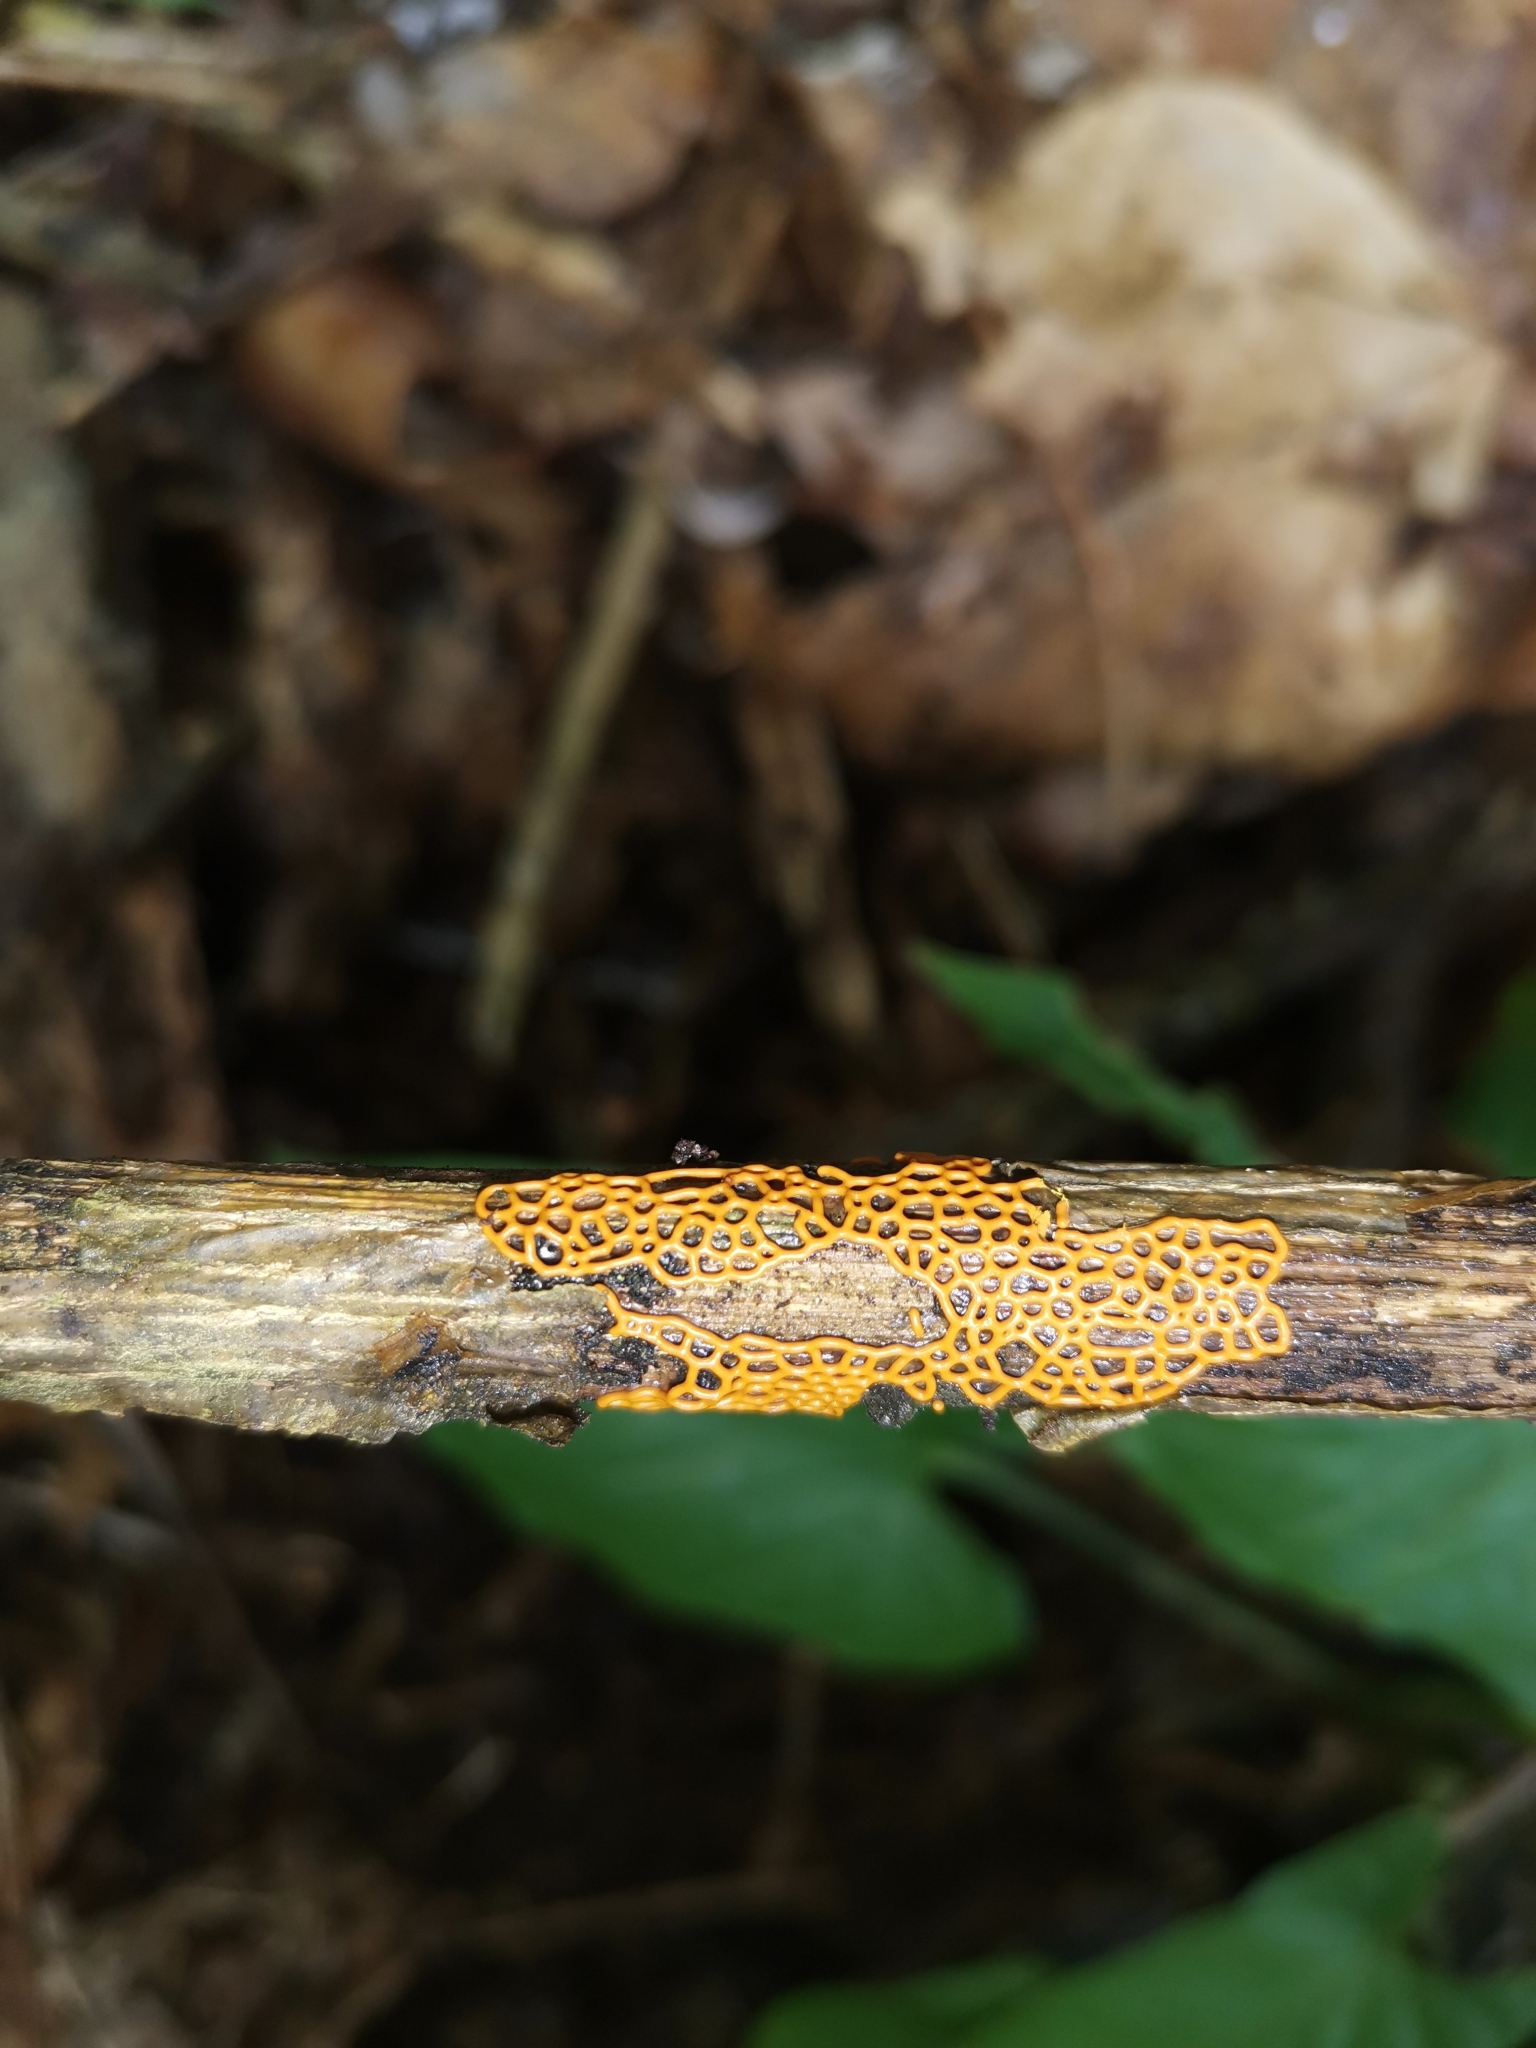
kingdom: Protozoa
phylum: Mycetozoa
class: Myxomycetes
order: Trichiales
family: Arcyriaceae
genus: Hemitrichia
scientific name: Hemitrichia serpula
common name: Pretzel slime mold
